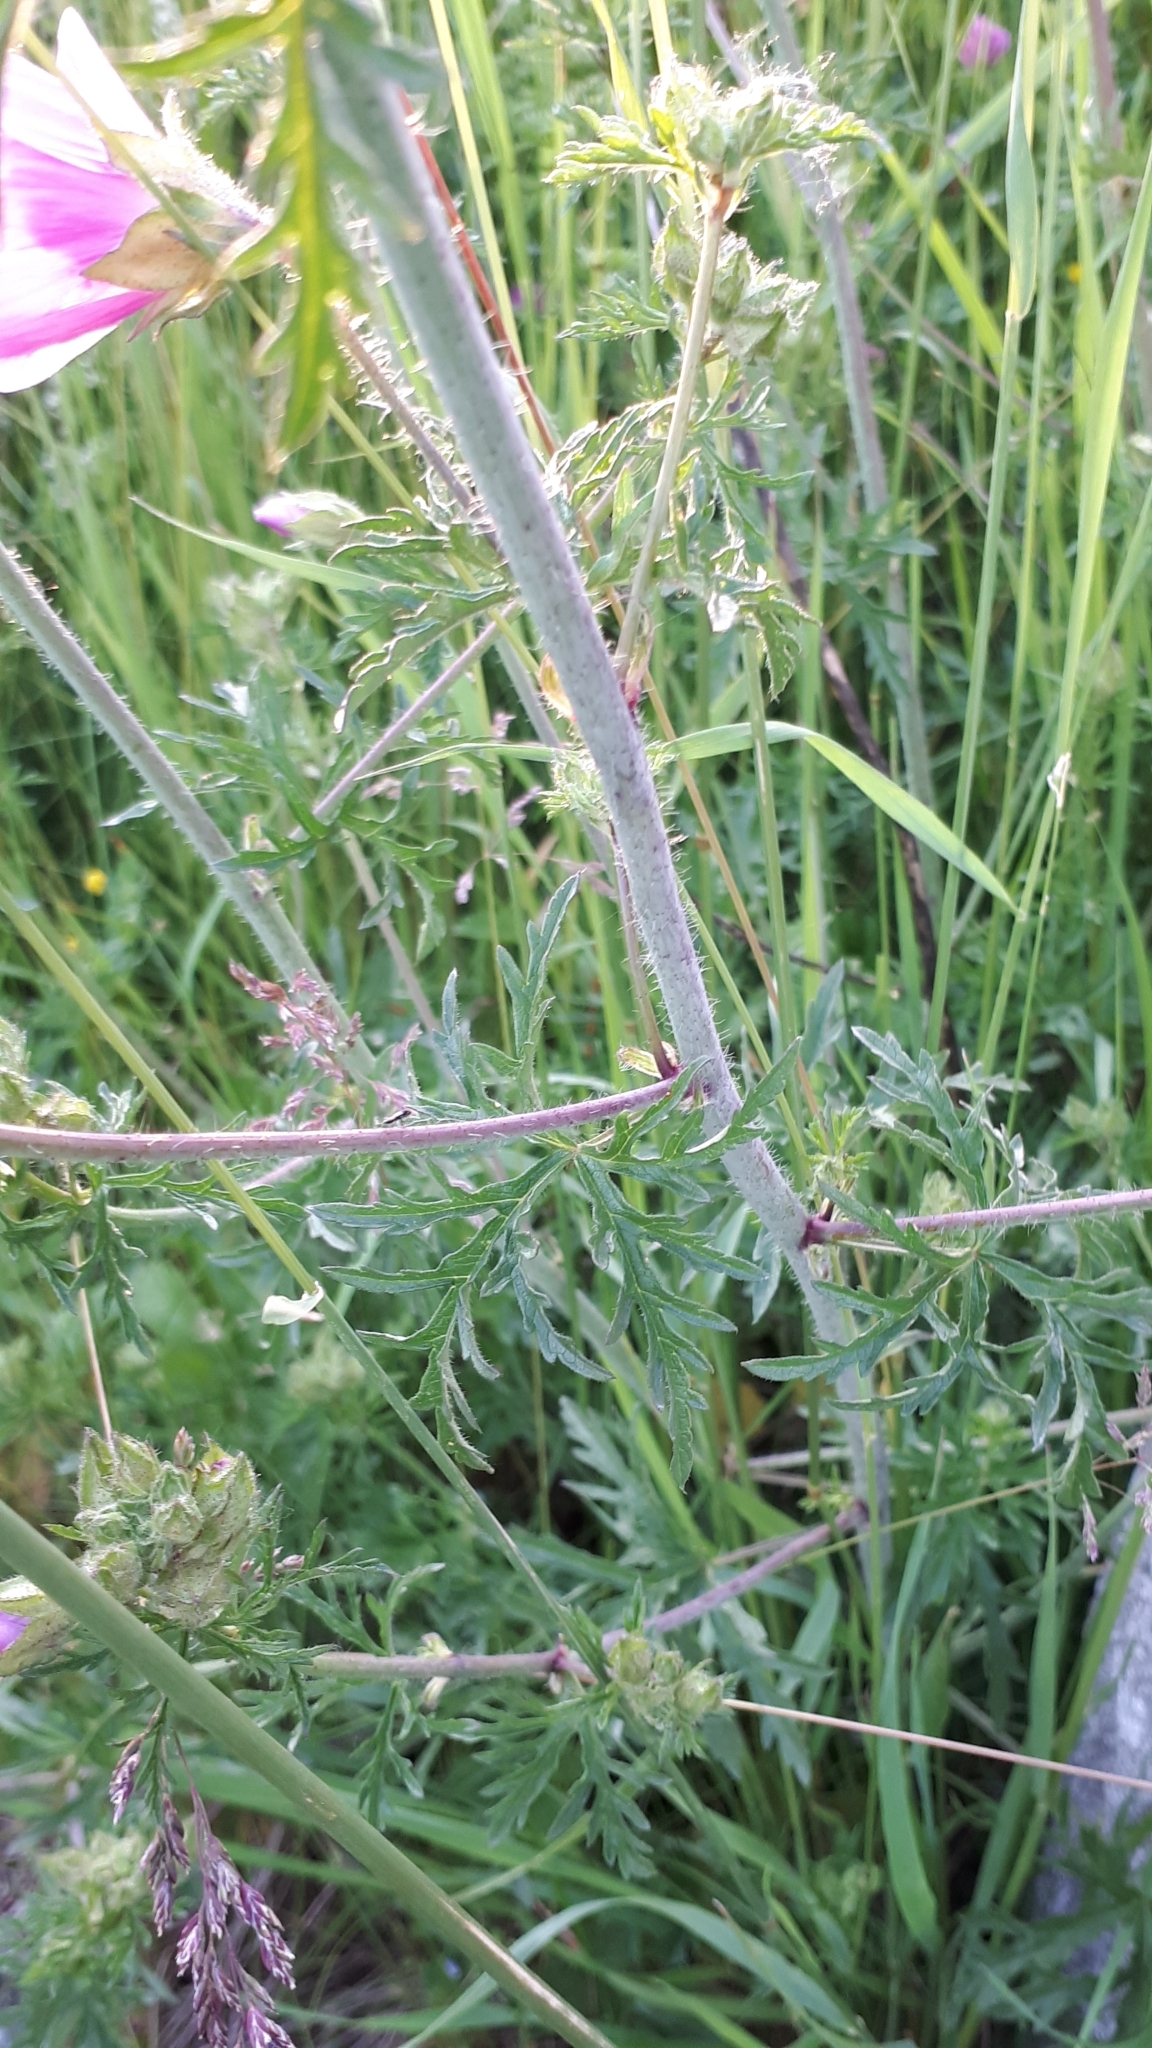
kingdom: Plantae
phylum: Tracheophyta
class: Magnoliopsida
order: Malvales
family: Malvaceae
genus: Malva
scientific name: Malva moschata
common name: Musk mallow
